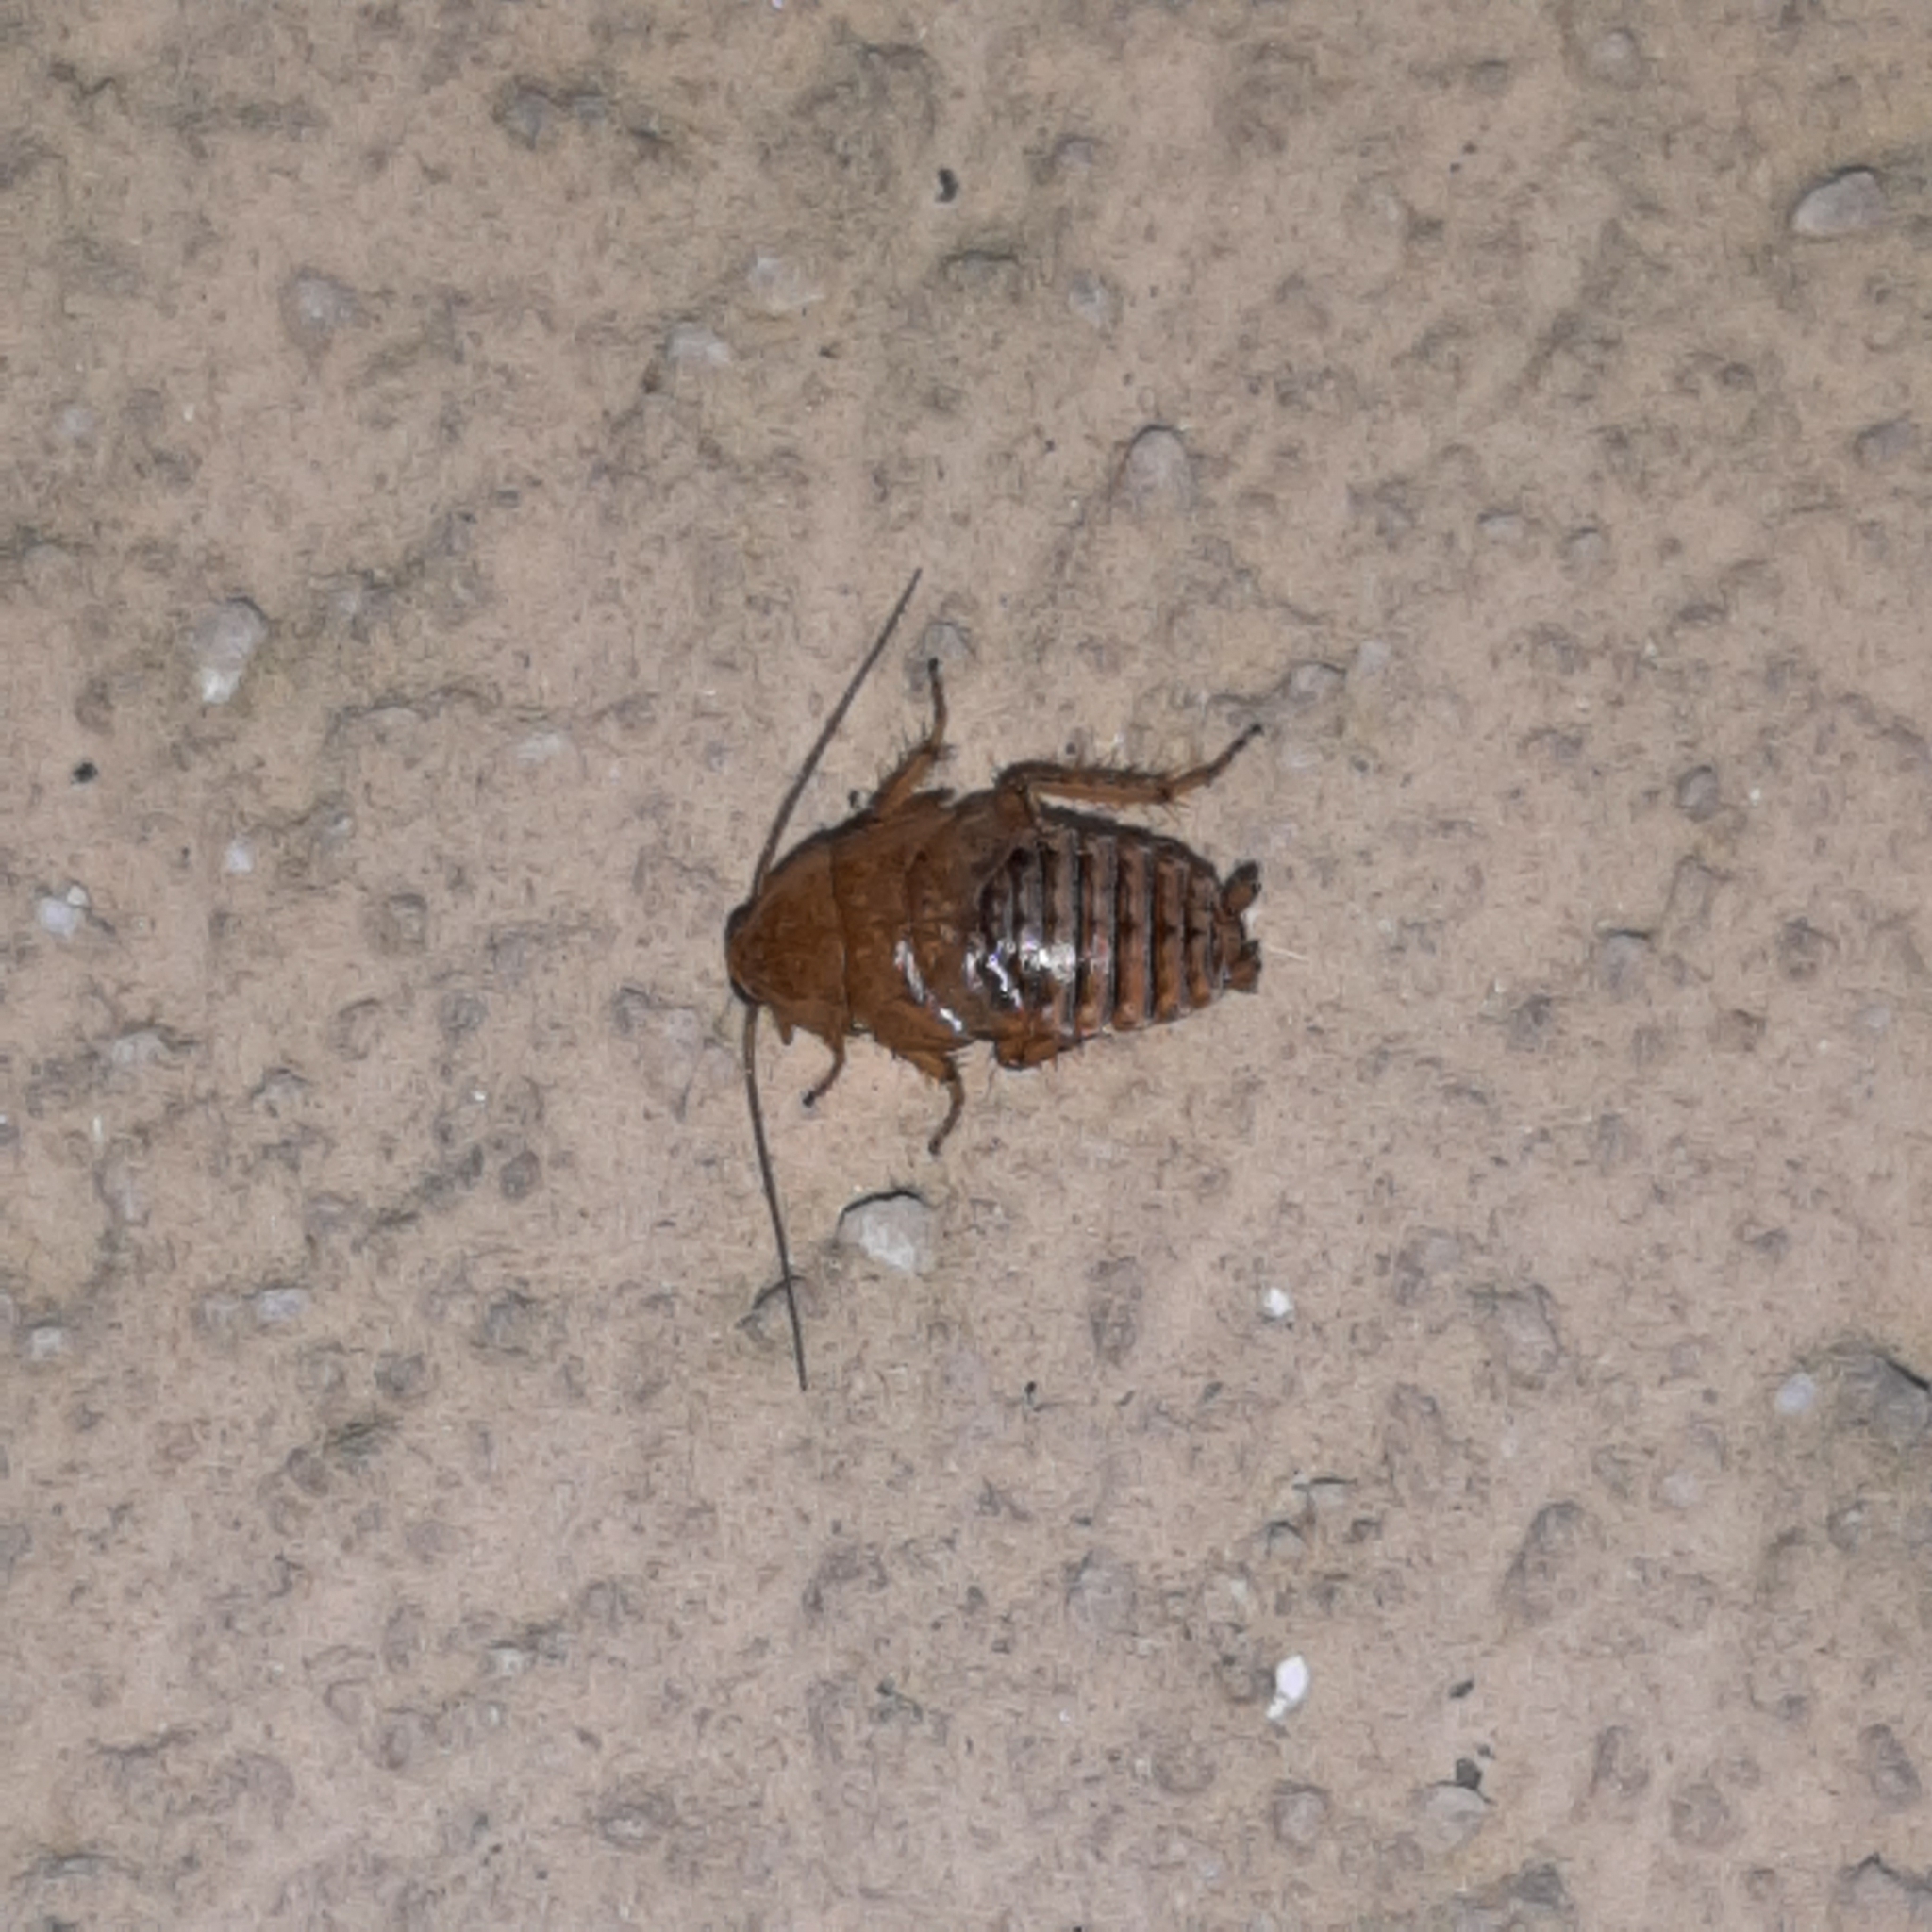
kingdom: Animalia
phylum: Arthropoda
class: Insecta
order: Blattodea
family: Ectobiidae
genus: Ectobius
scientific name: Ectobius vittiventris
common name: Garden cockroach
